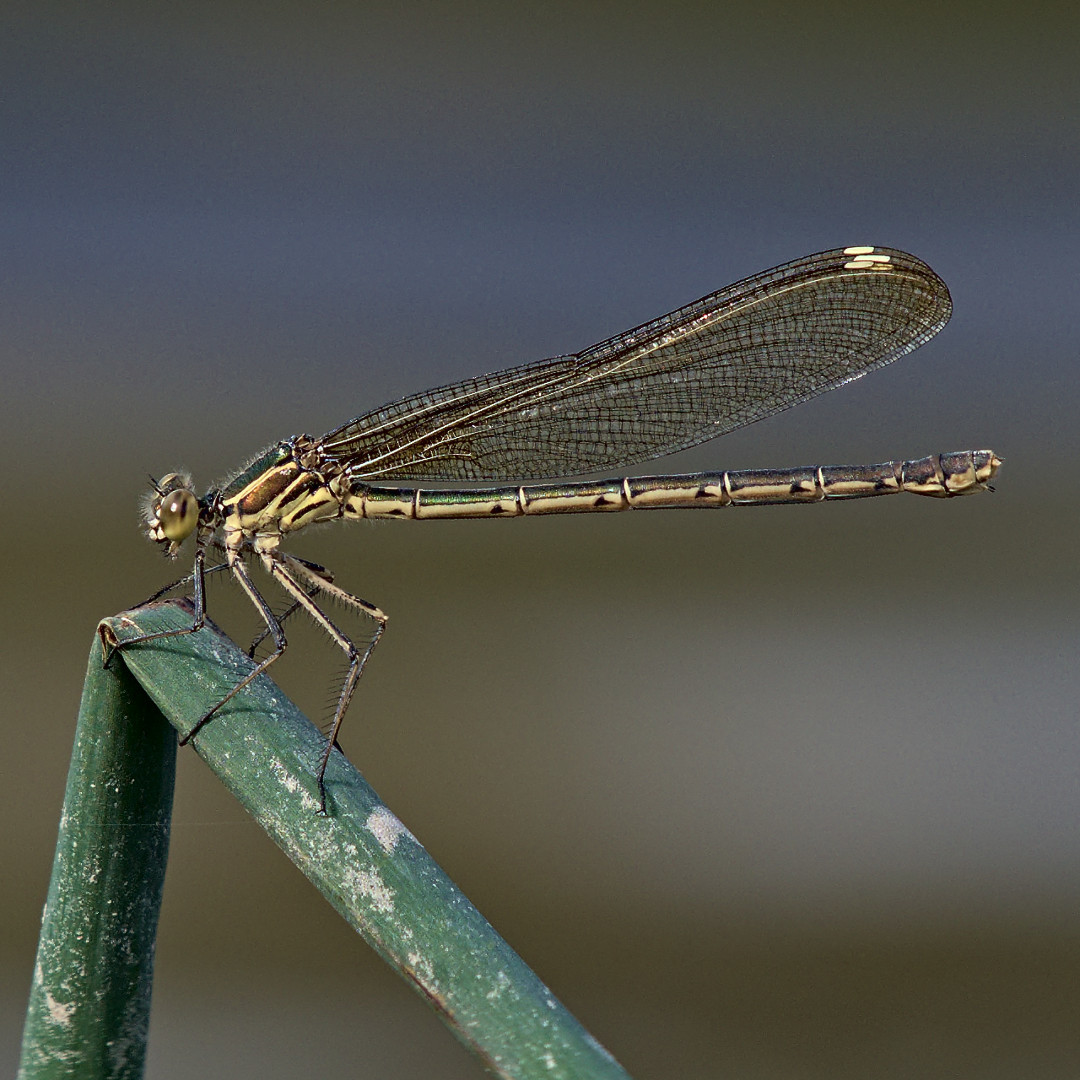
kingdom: Animalia
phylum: Arthropoda
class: Insecta
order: Odonata
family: Calopterygidae
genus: Hetaerina
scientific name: Hetaerina americana
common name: American rubyspot
